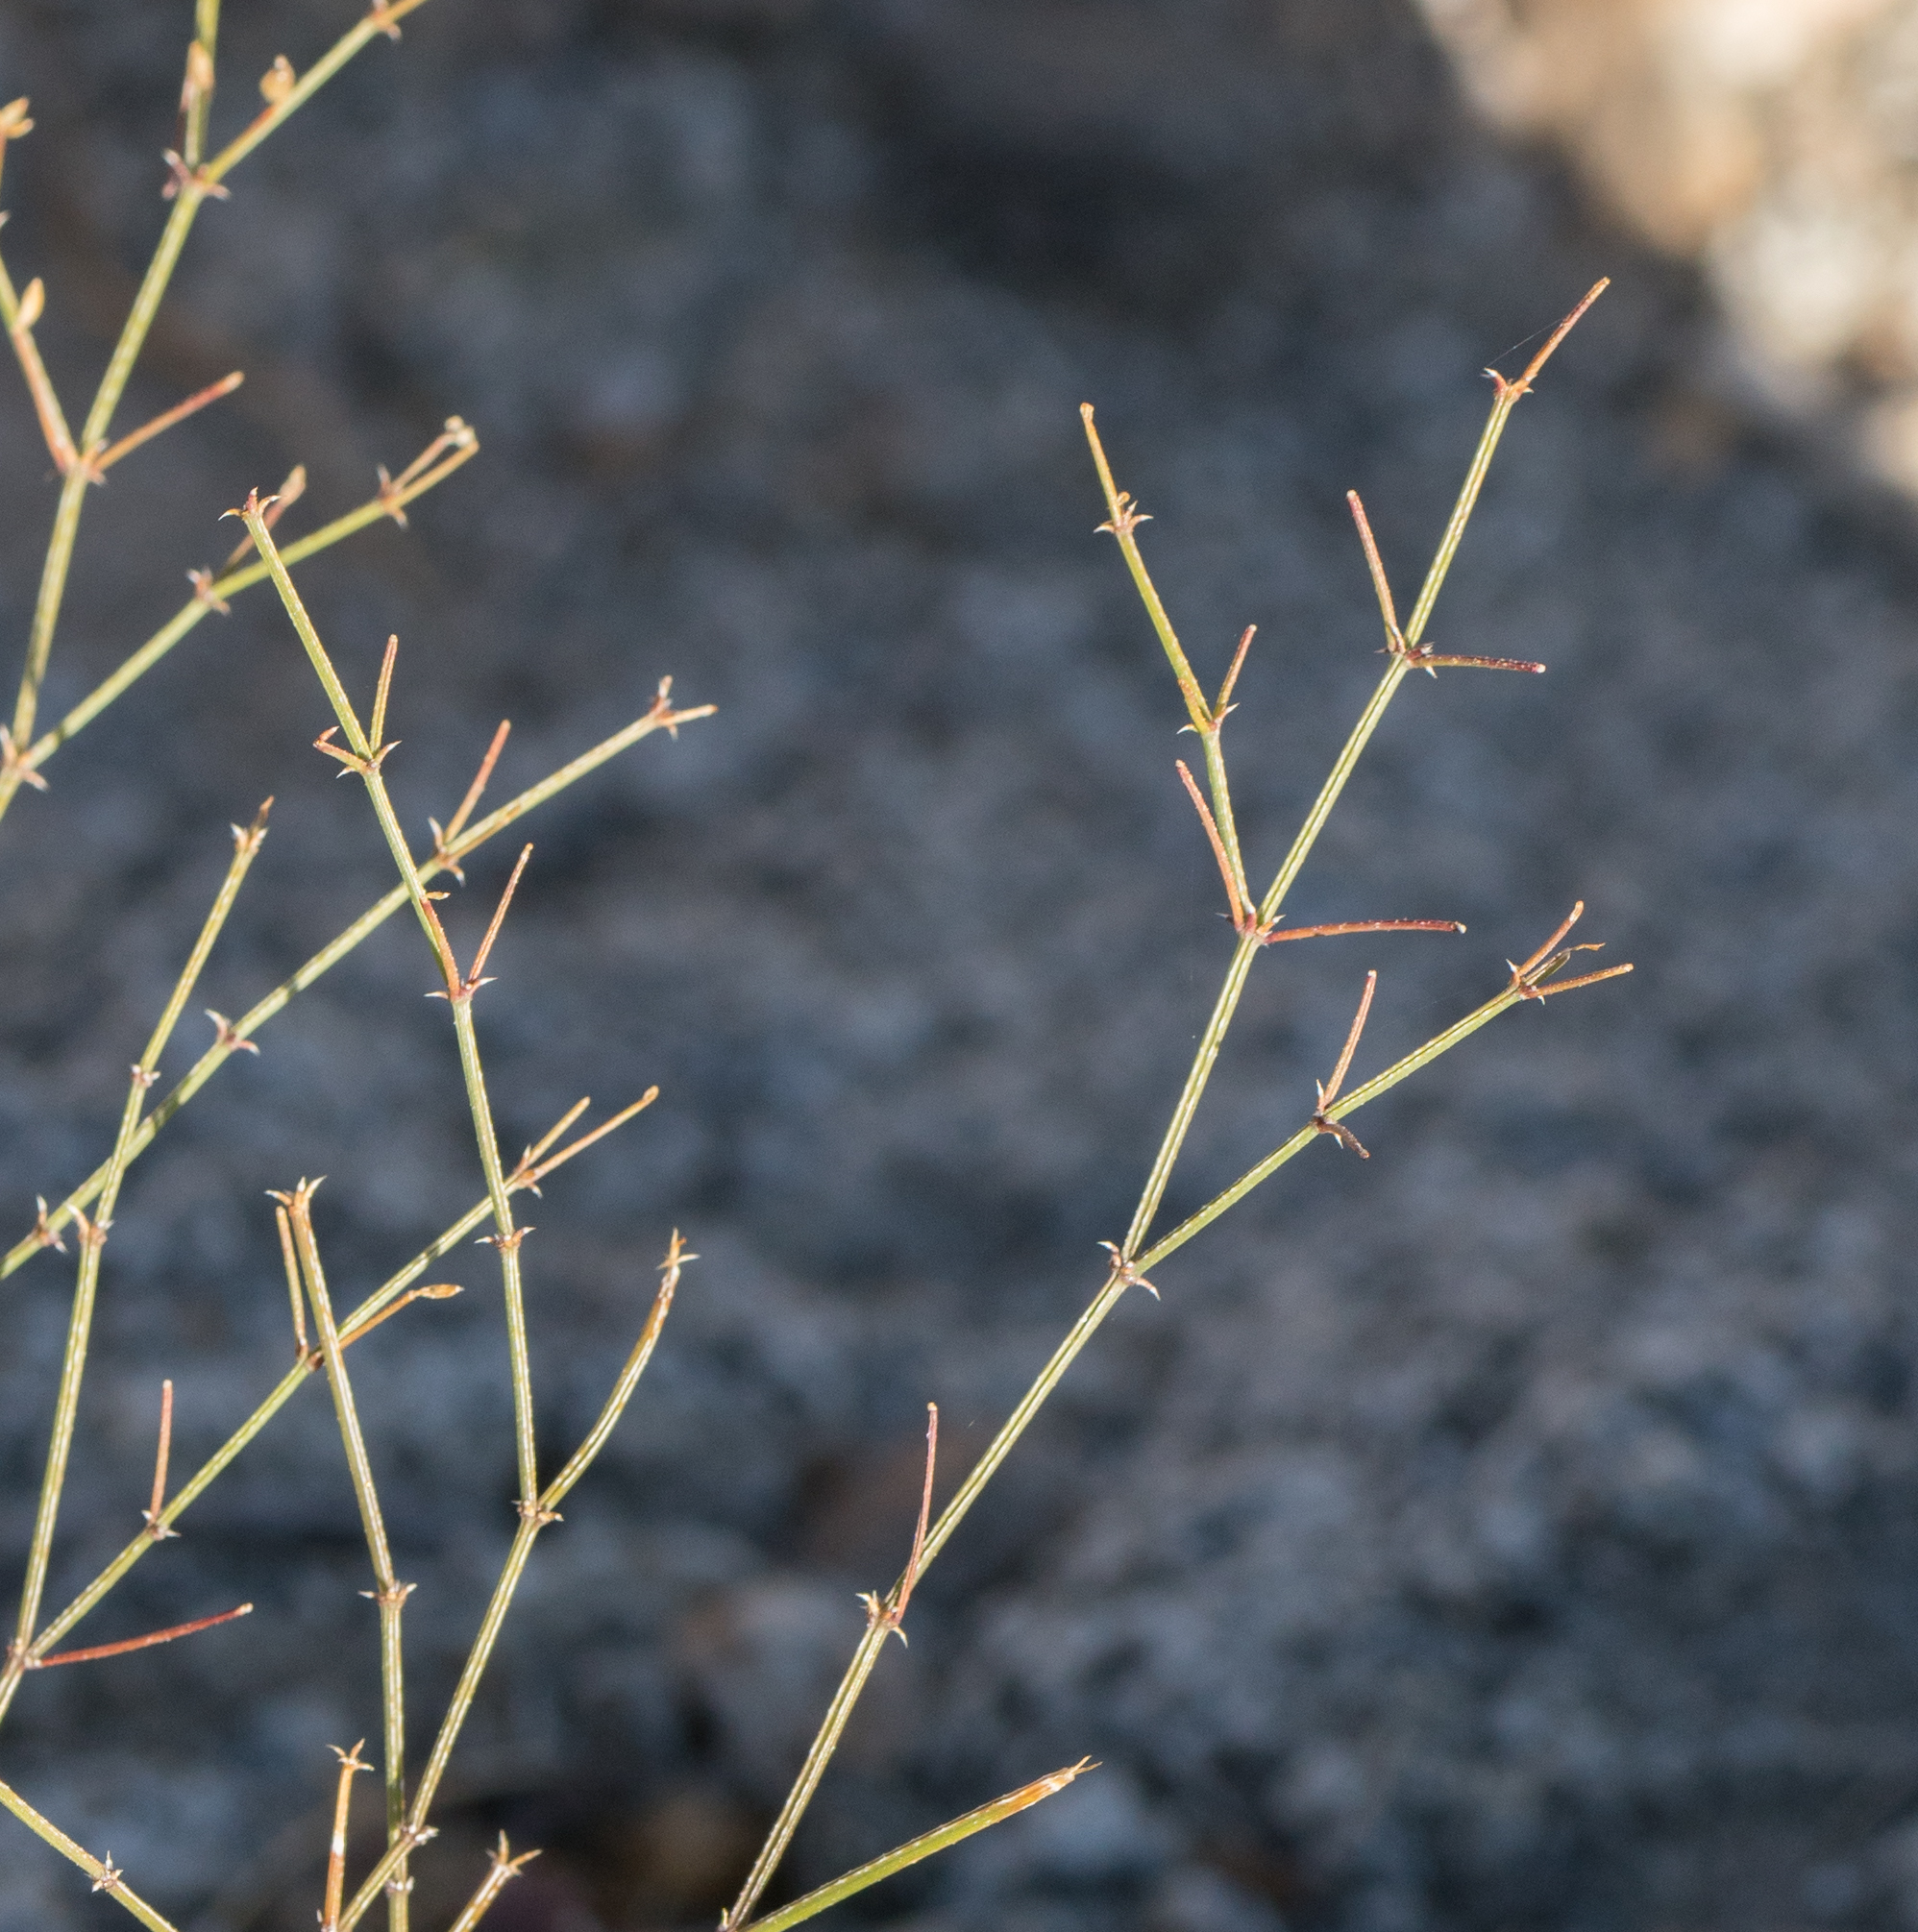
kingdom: Plantae
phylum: Tracheophyta
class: Magnoliopsida
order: Zygophyllales
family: Zygophyllaceae
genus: Fagonia
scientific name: Fagonia laevis
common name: California fagonbush
